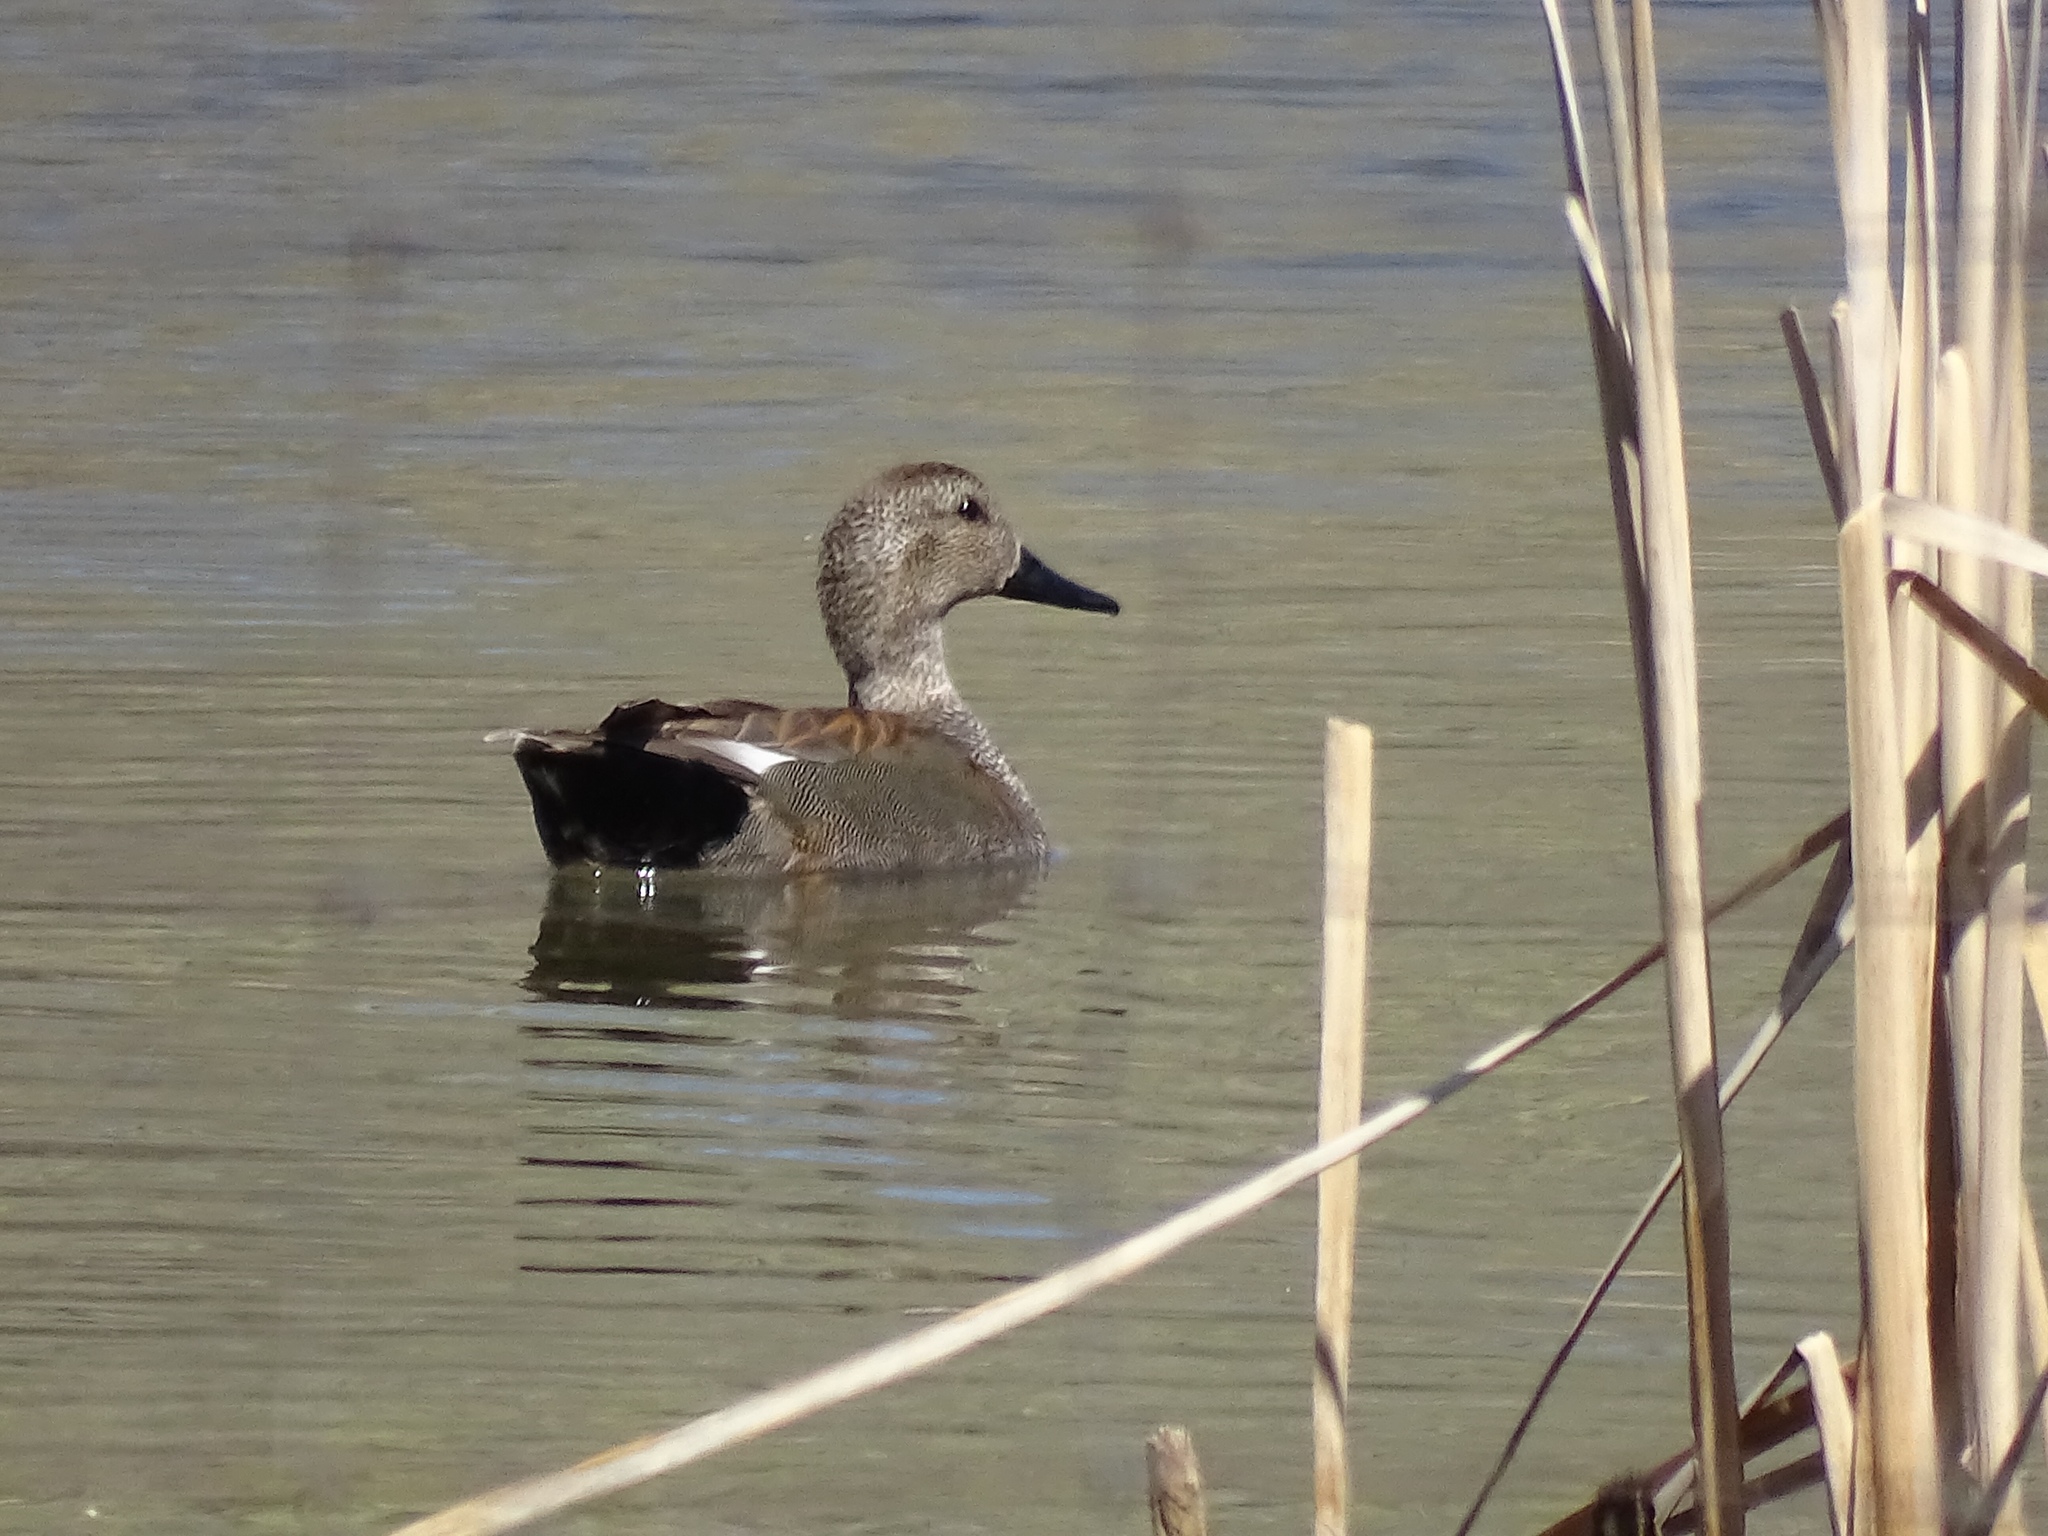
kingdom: Animalia
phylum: Chordata
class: Aves
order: Anseriformes
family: Anatidae
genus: Mareca
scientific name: Mareca strepera
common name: Gadwall
